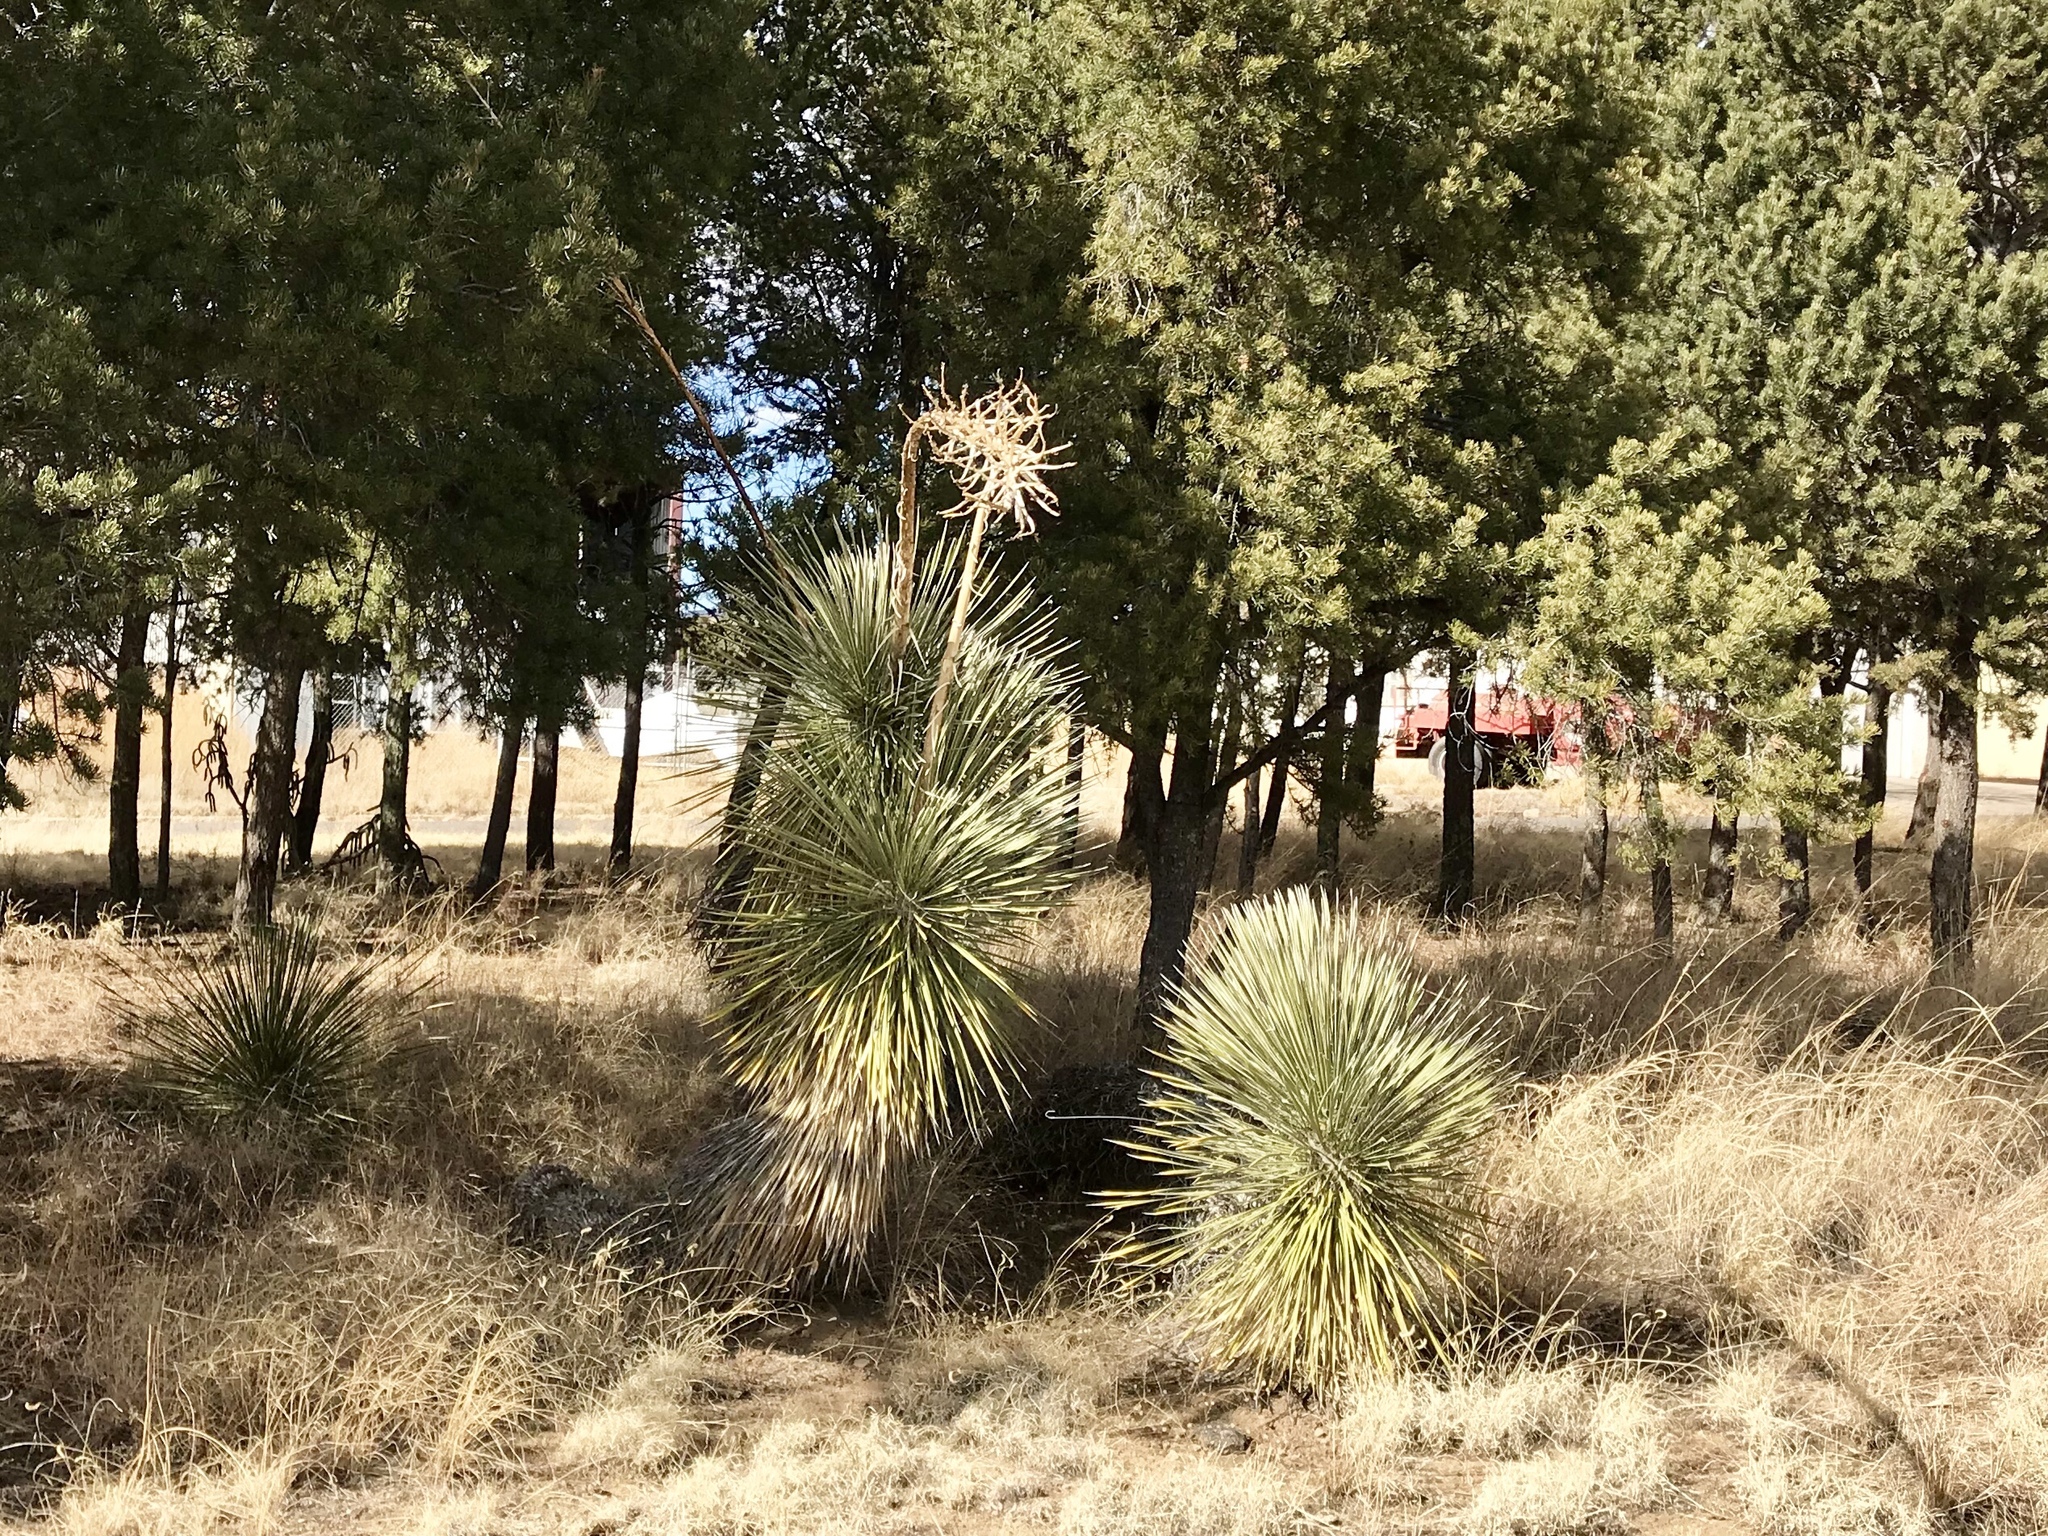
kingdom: Plantae
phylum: Tracheophyta
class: Liliopsida
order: Asparagales
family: Asparagaceae
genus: Yucca
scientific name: Yucca elata
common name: Palmella
